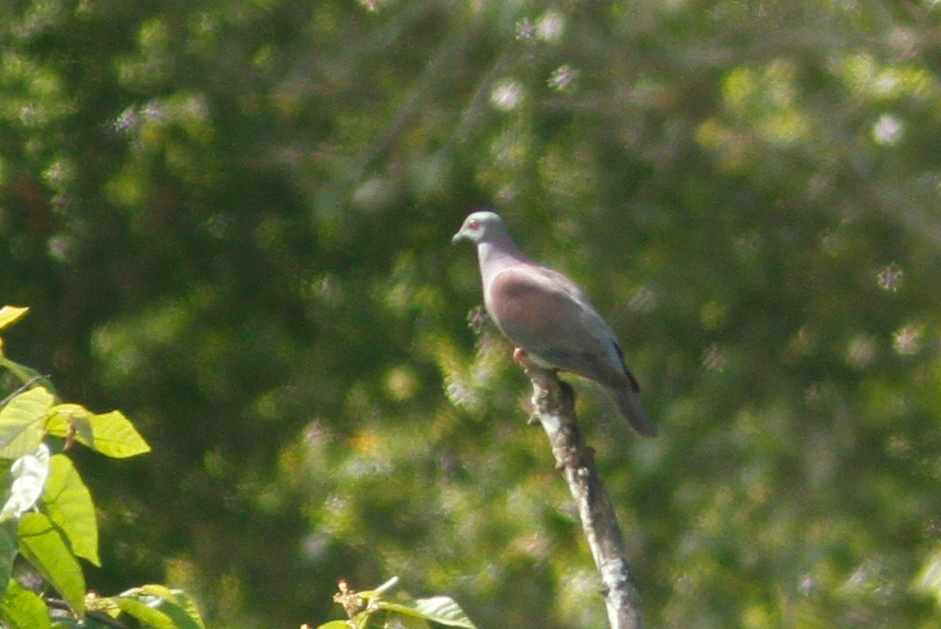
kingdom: Animalia
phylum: Chordata
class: Aves
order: Columbiformes
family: Columbidae
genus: Patagioenas
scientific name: Patagioenas cayennensis
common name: Pale-vented pigeon
